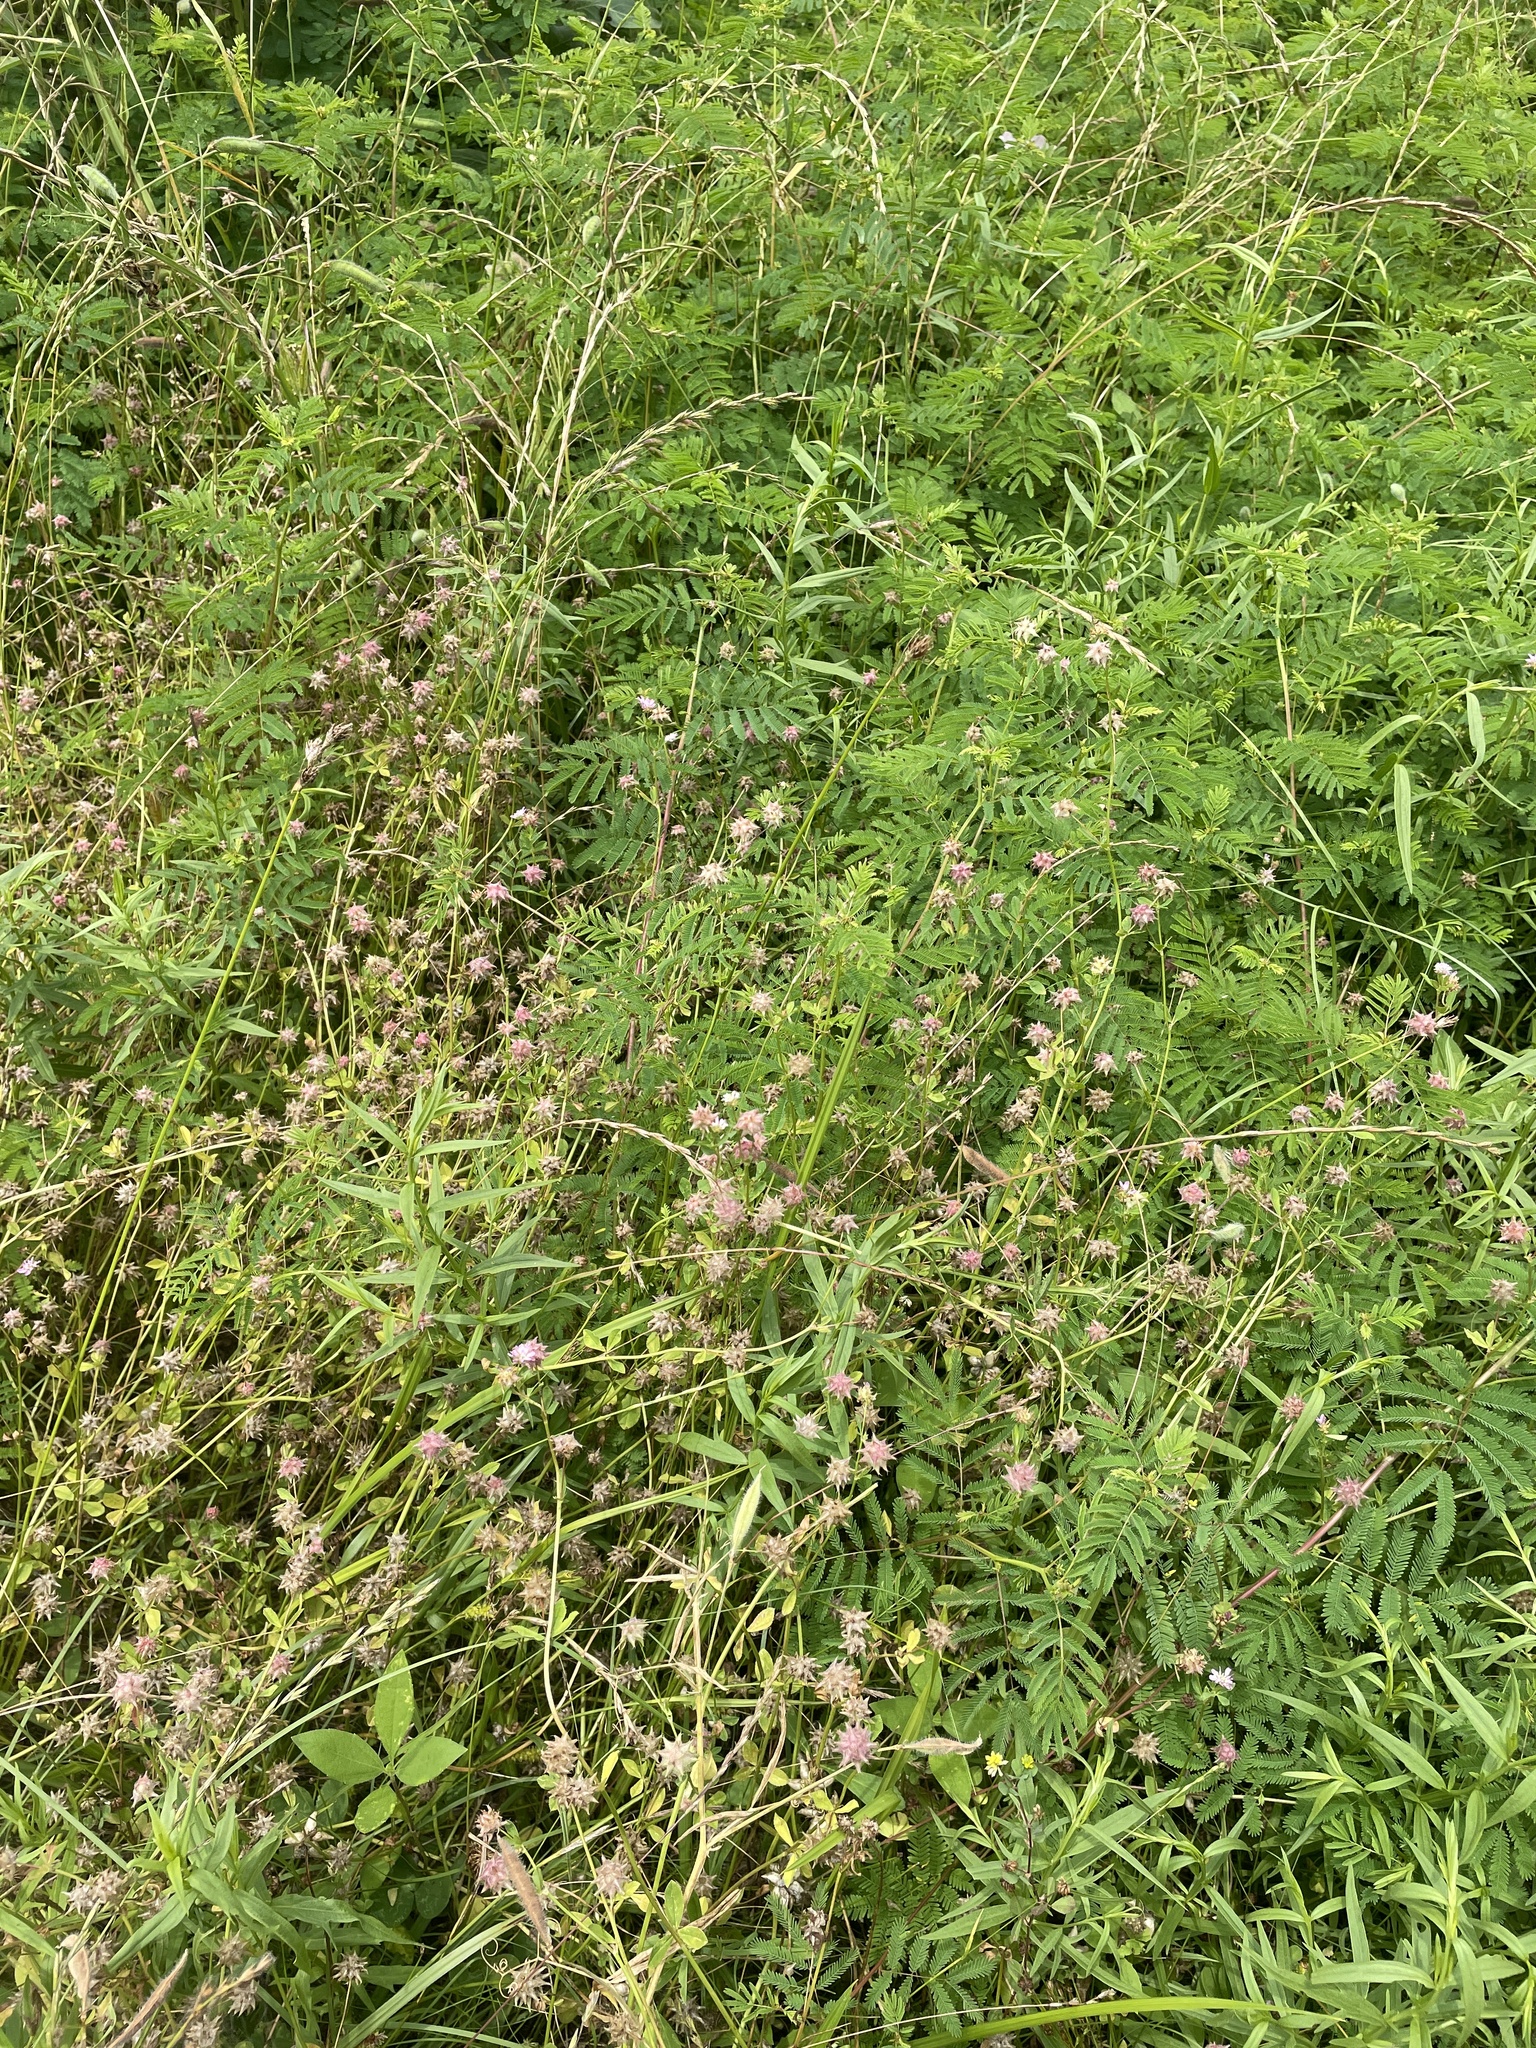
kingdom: Plantae
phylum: Tracheophyta
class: Magnoliopsida
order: Fabales
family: Fabaceae
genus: Trifolium
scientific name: Trifolium resupinatum
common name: Reversed clover
